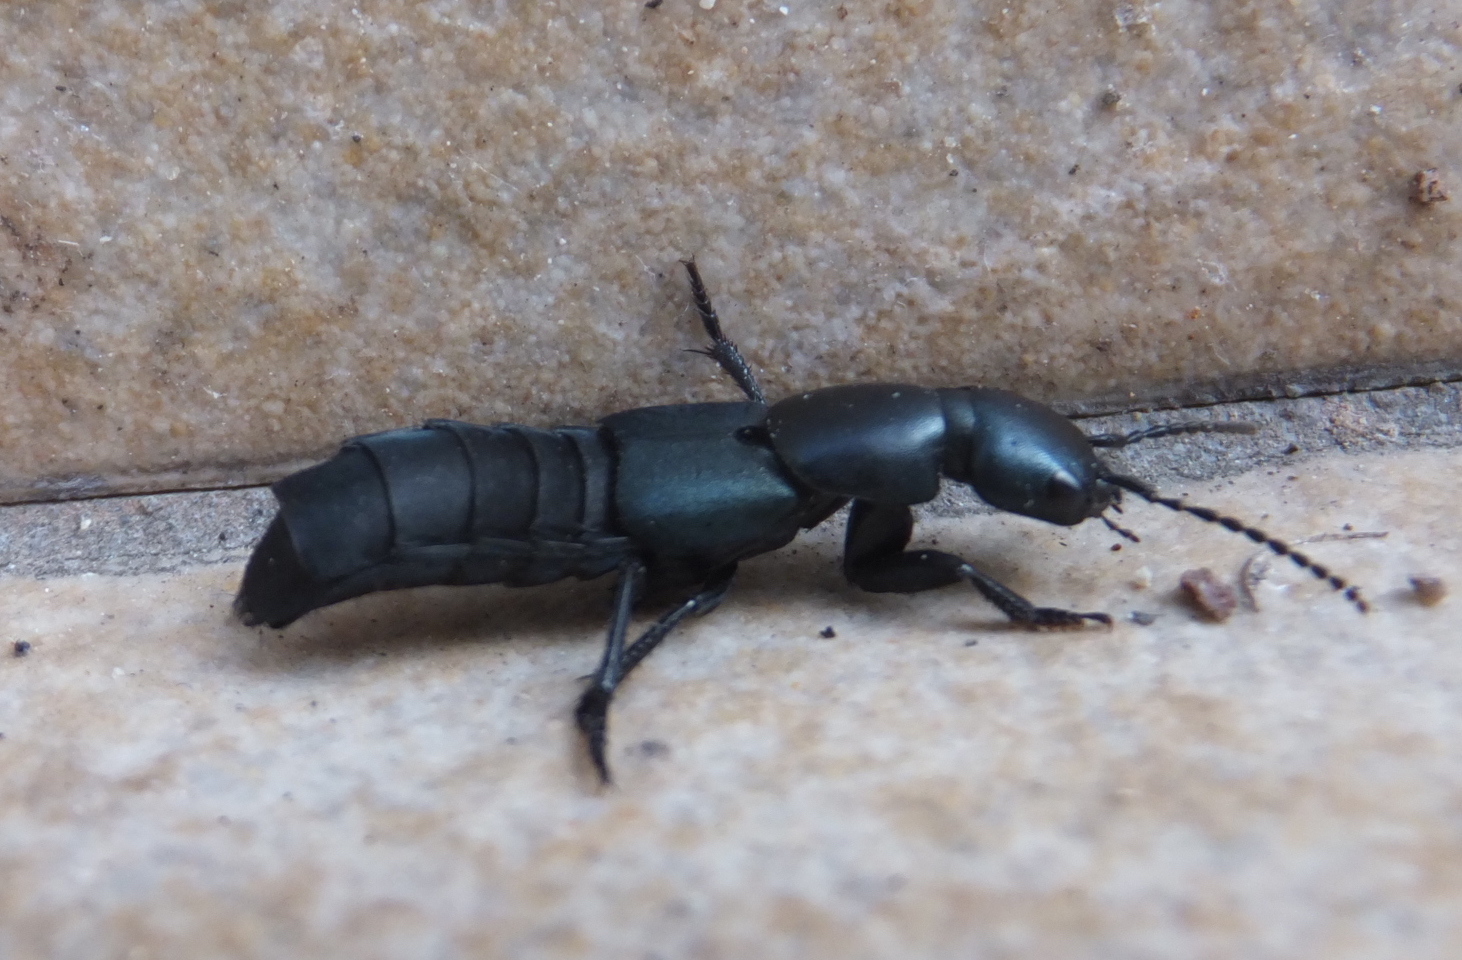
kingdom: Animalia
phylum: Arthropoda
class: Insecta
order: Coleoptera
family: Staphylinidae
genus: Ocypus
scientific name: Ocypus ophthalmicus
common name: Blue rove-beetle
